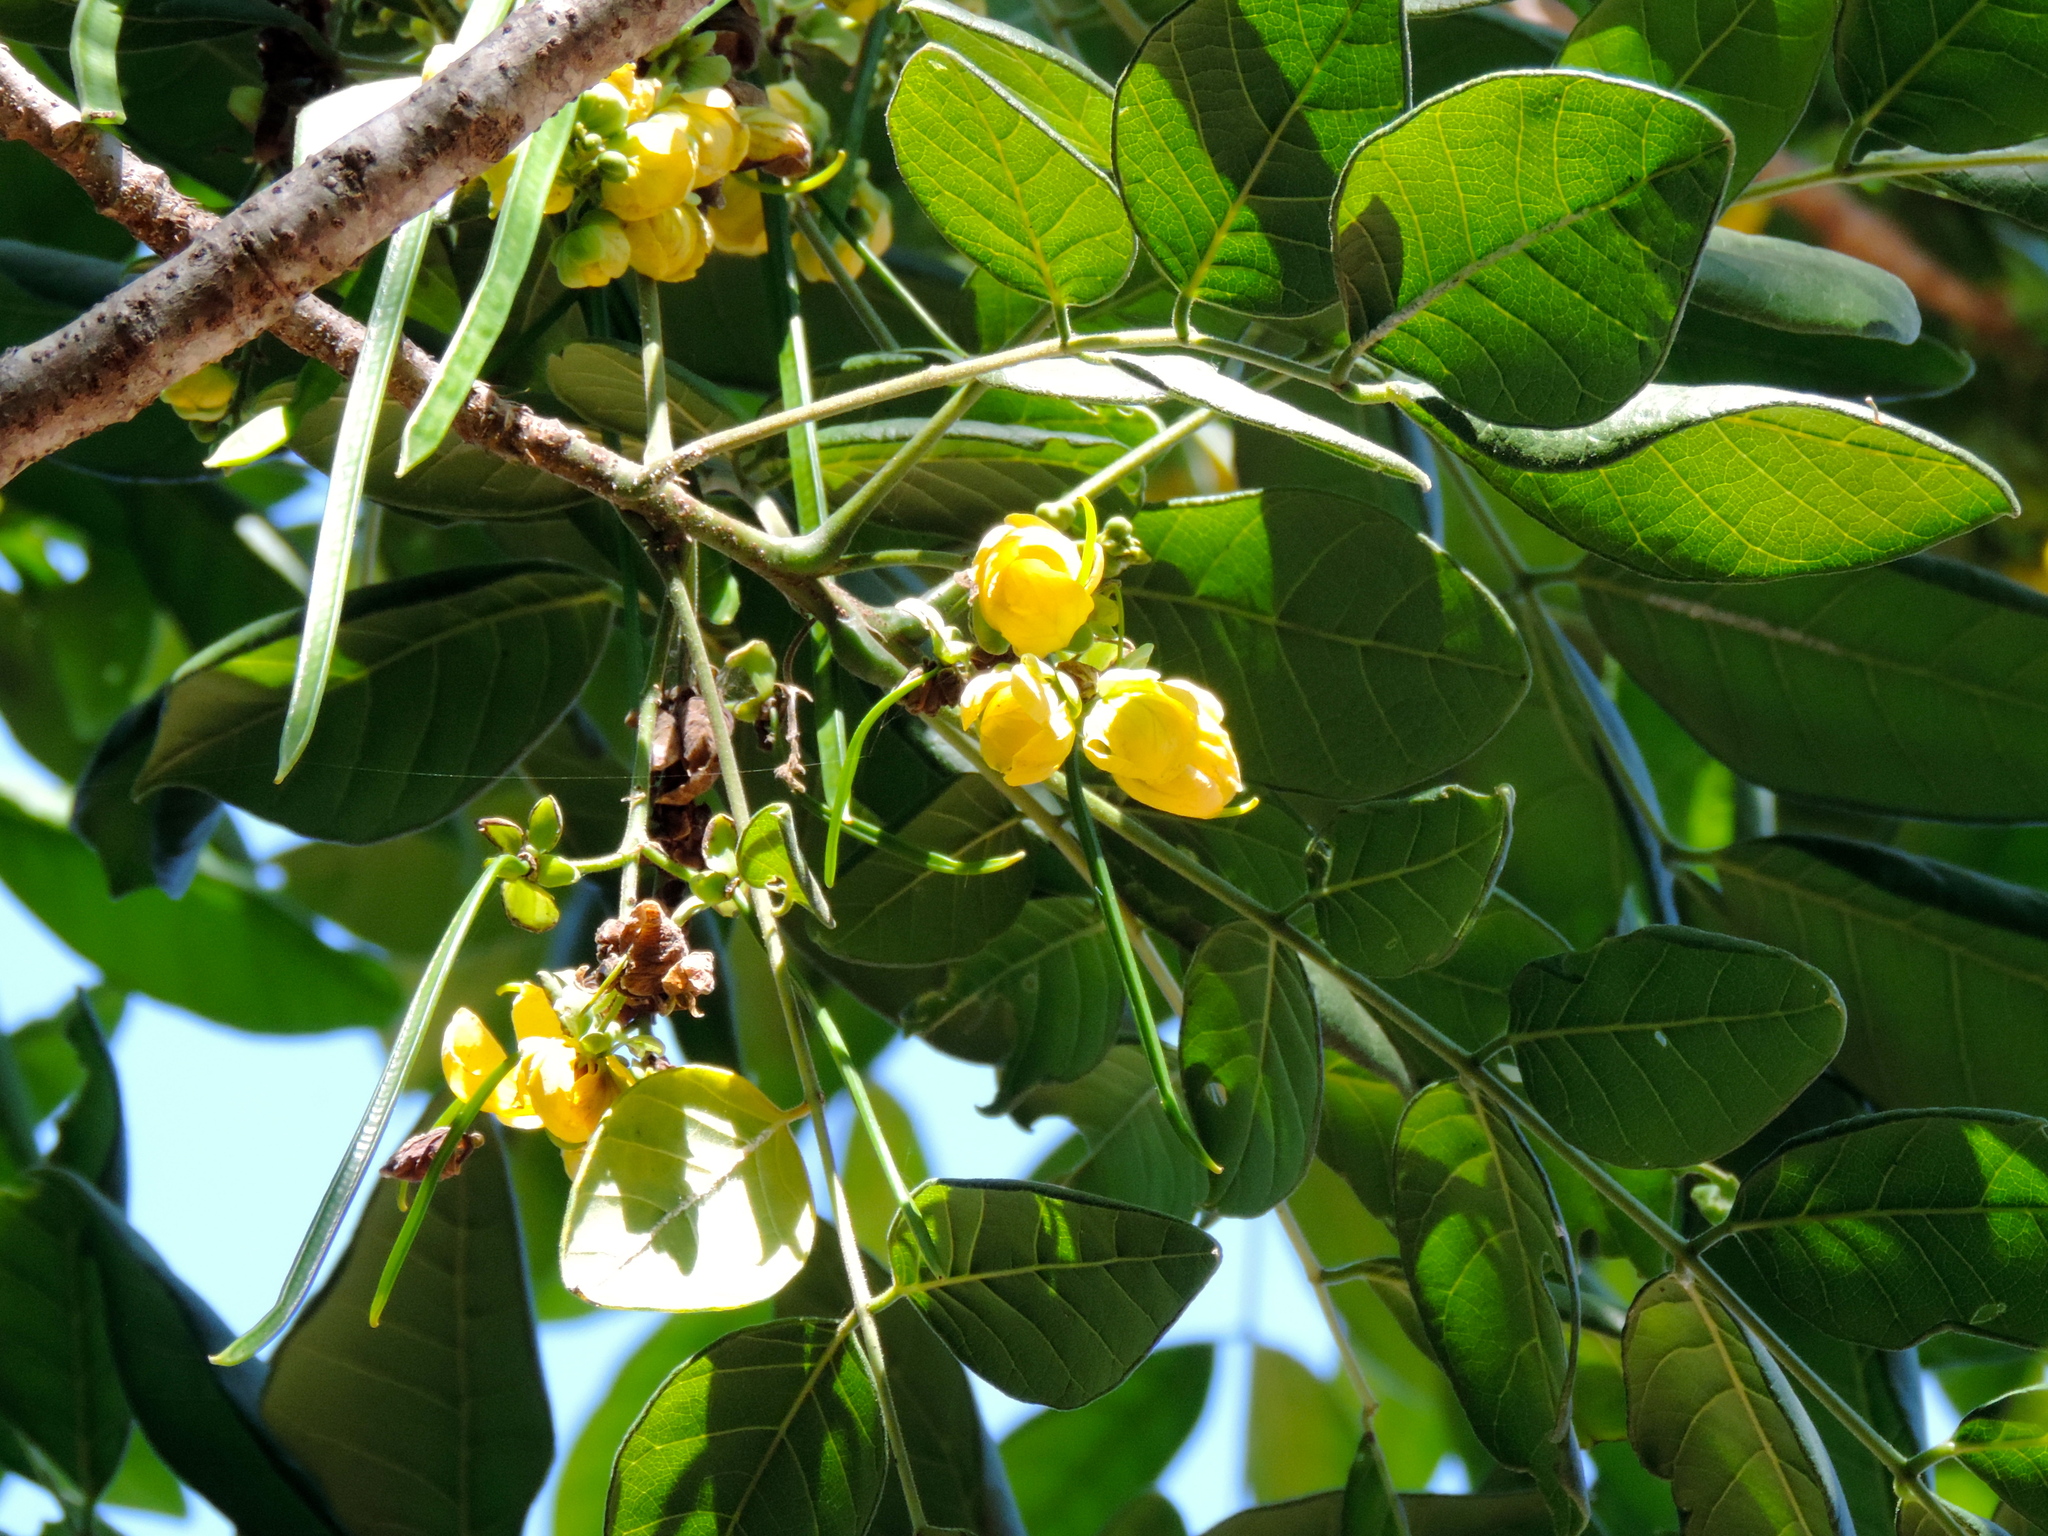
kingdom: Plantae
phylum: Tracheophyta
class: Magnoliopsida
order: Fabales
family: Fabaceae
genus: Senna
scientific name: Senna atomaria
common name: Flor de san jose
